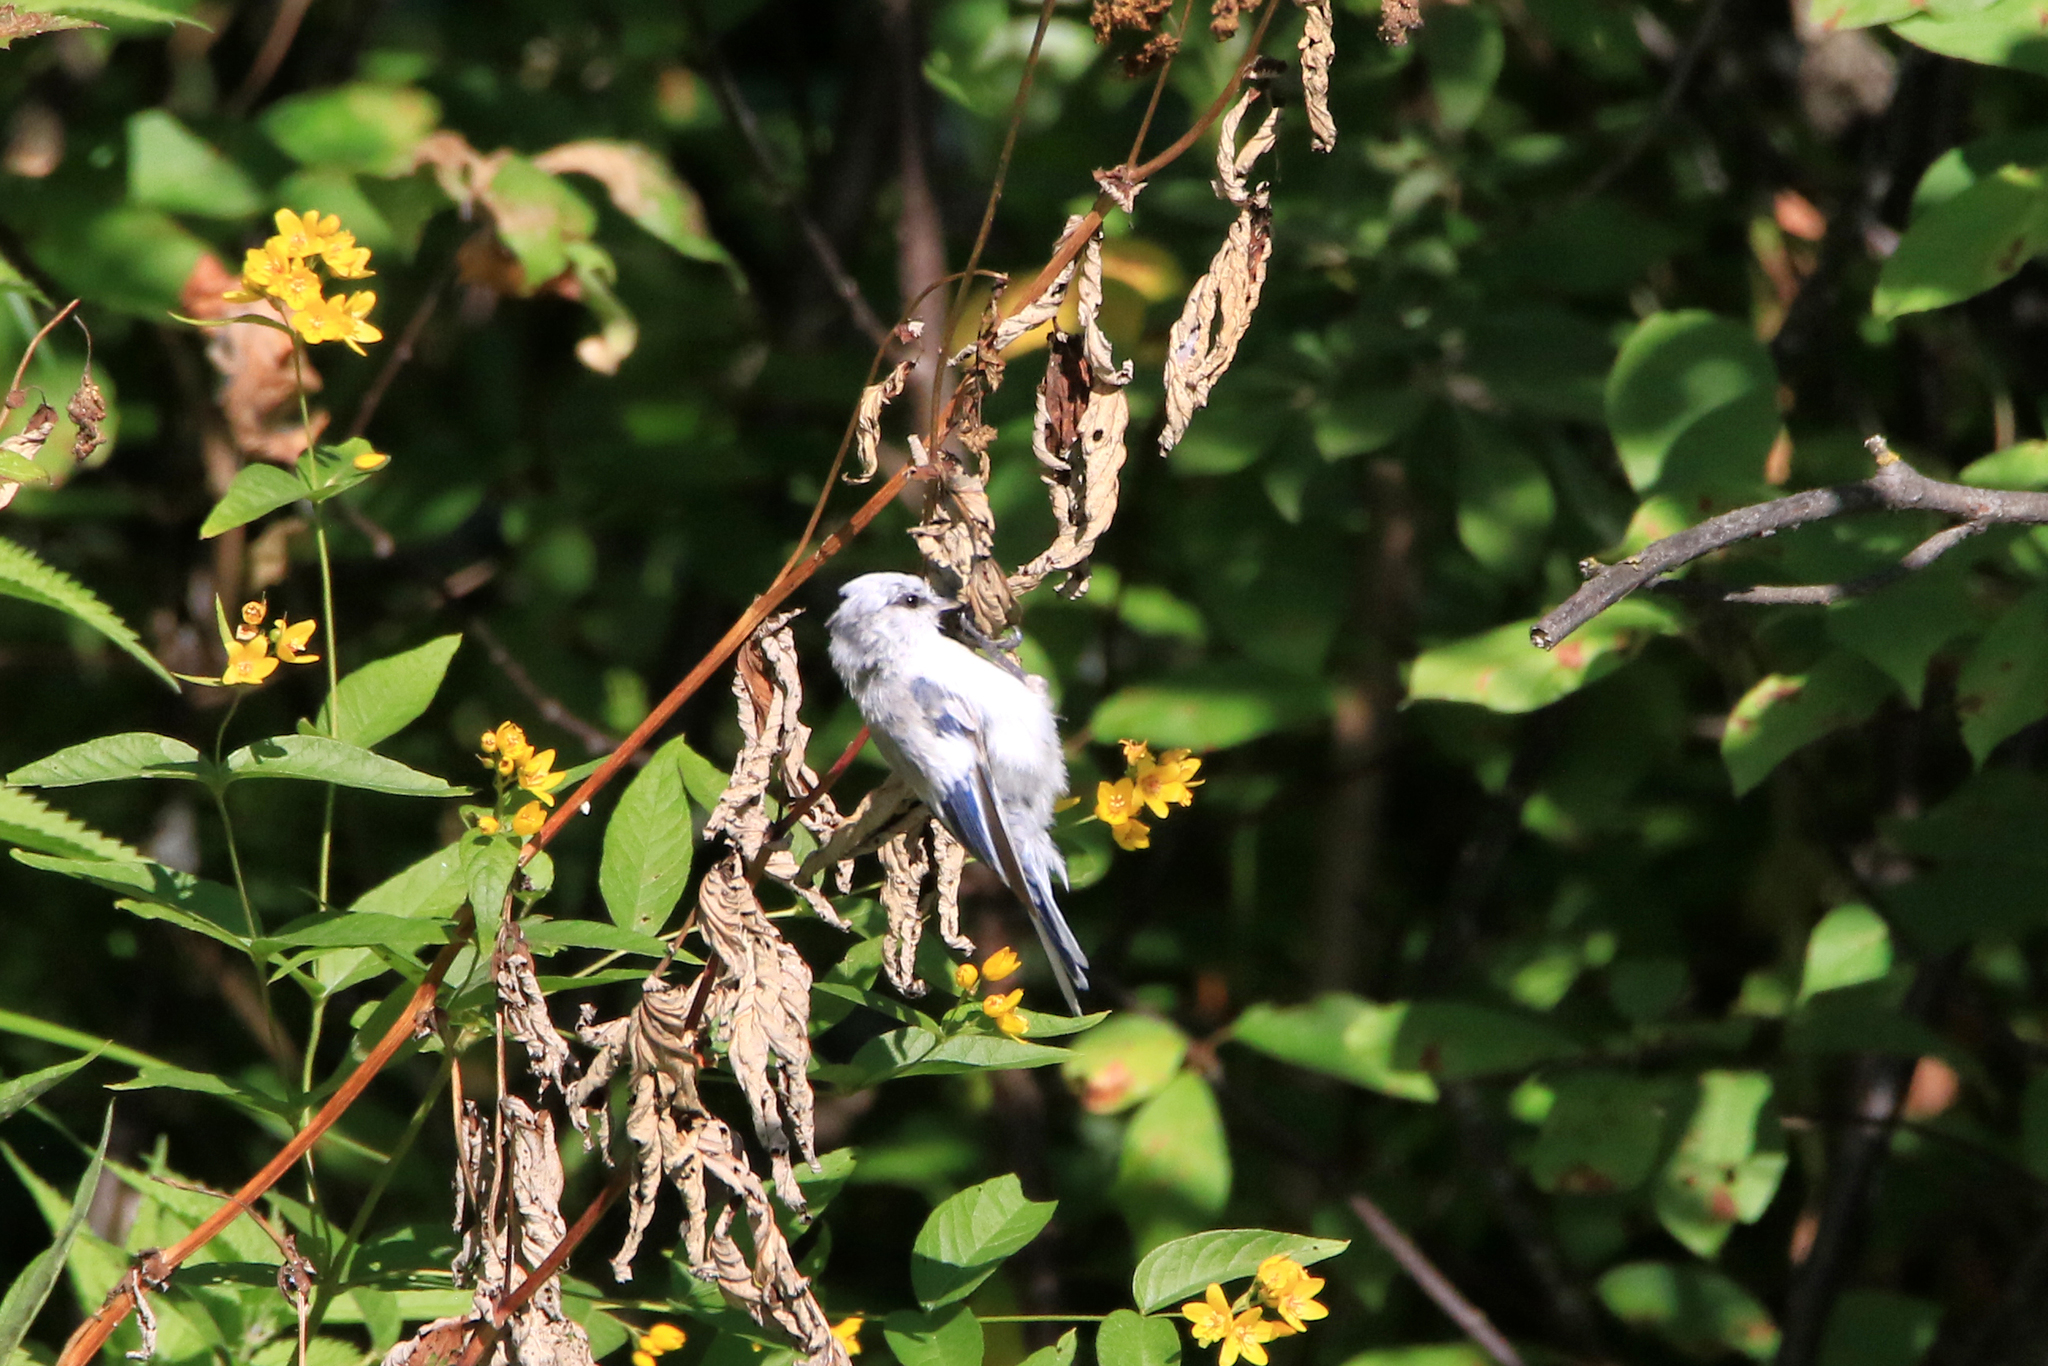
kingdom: Animalia
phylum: Chordata
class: Aves
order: Passeriformes
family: Paridae
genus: Cyanistes
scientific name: Cyanistes cyanus
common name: Azure tit
